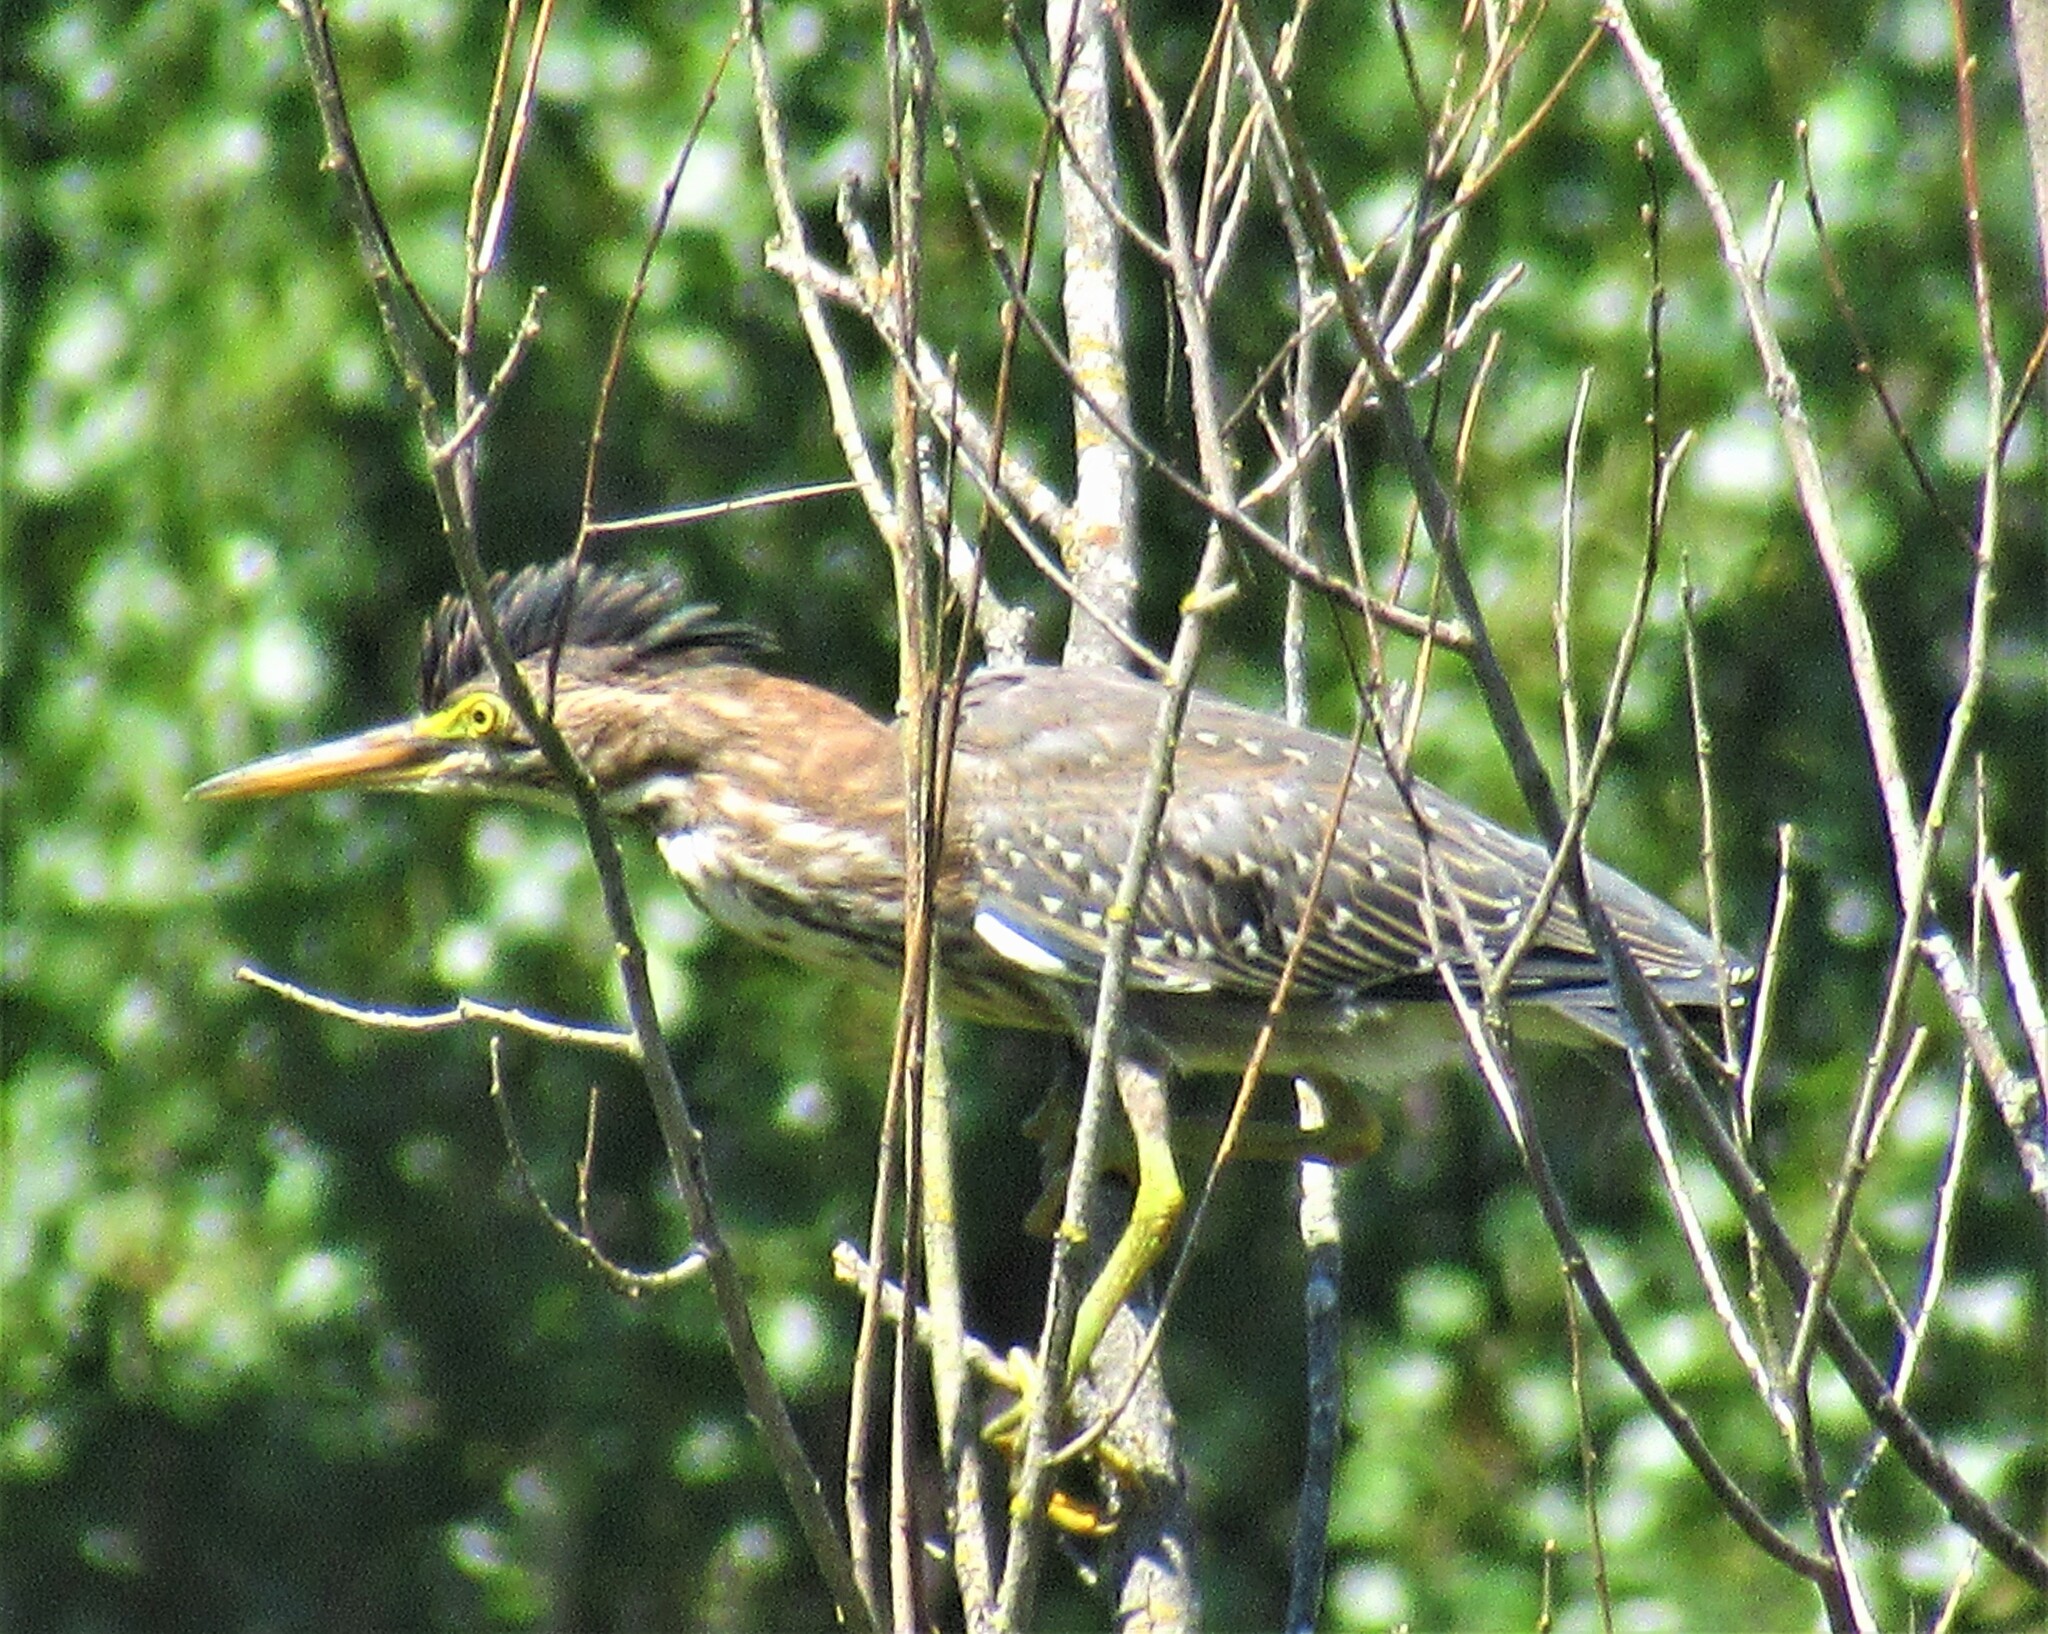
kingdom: Animalia
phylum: Chordata
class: Aves
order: Pelecaniformes
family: Ardeidae
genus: Butorides
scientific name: Butorides virescens
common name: Green heron
